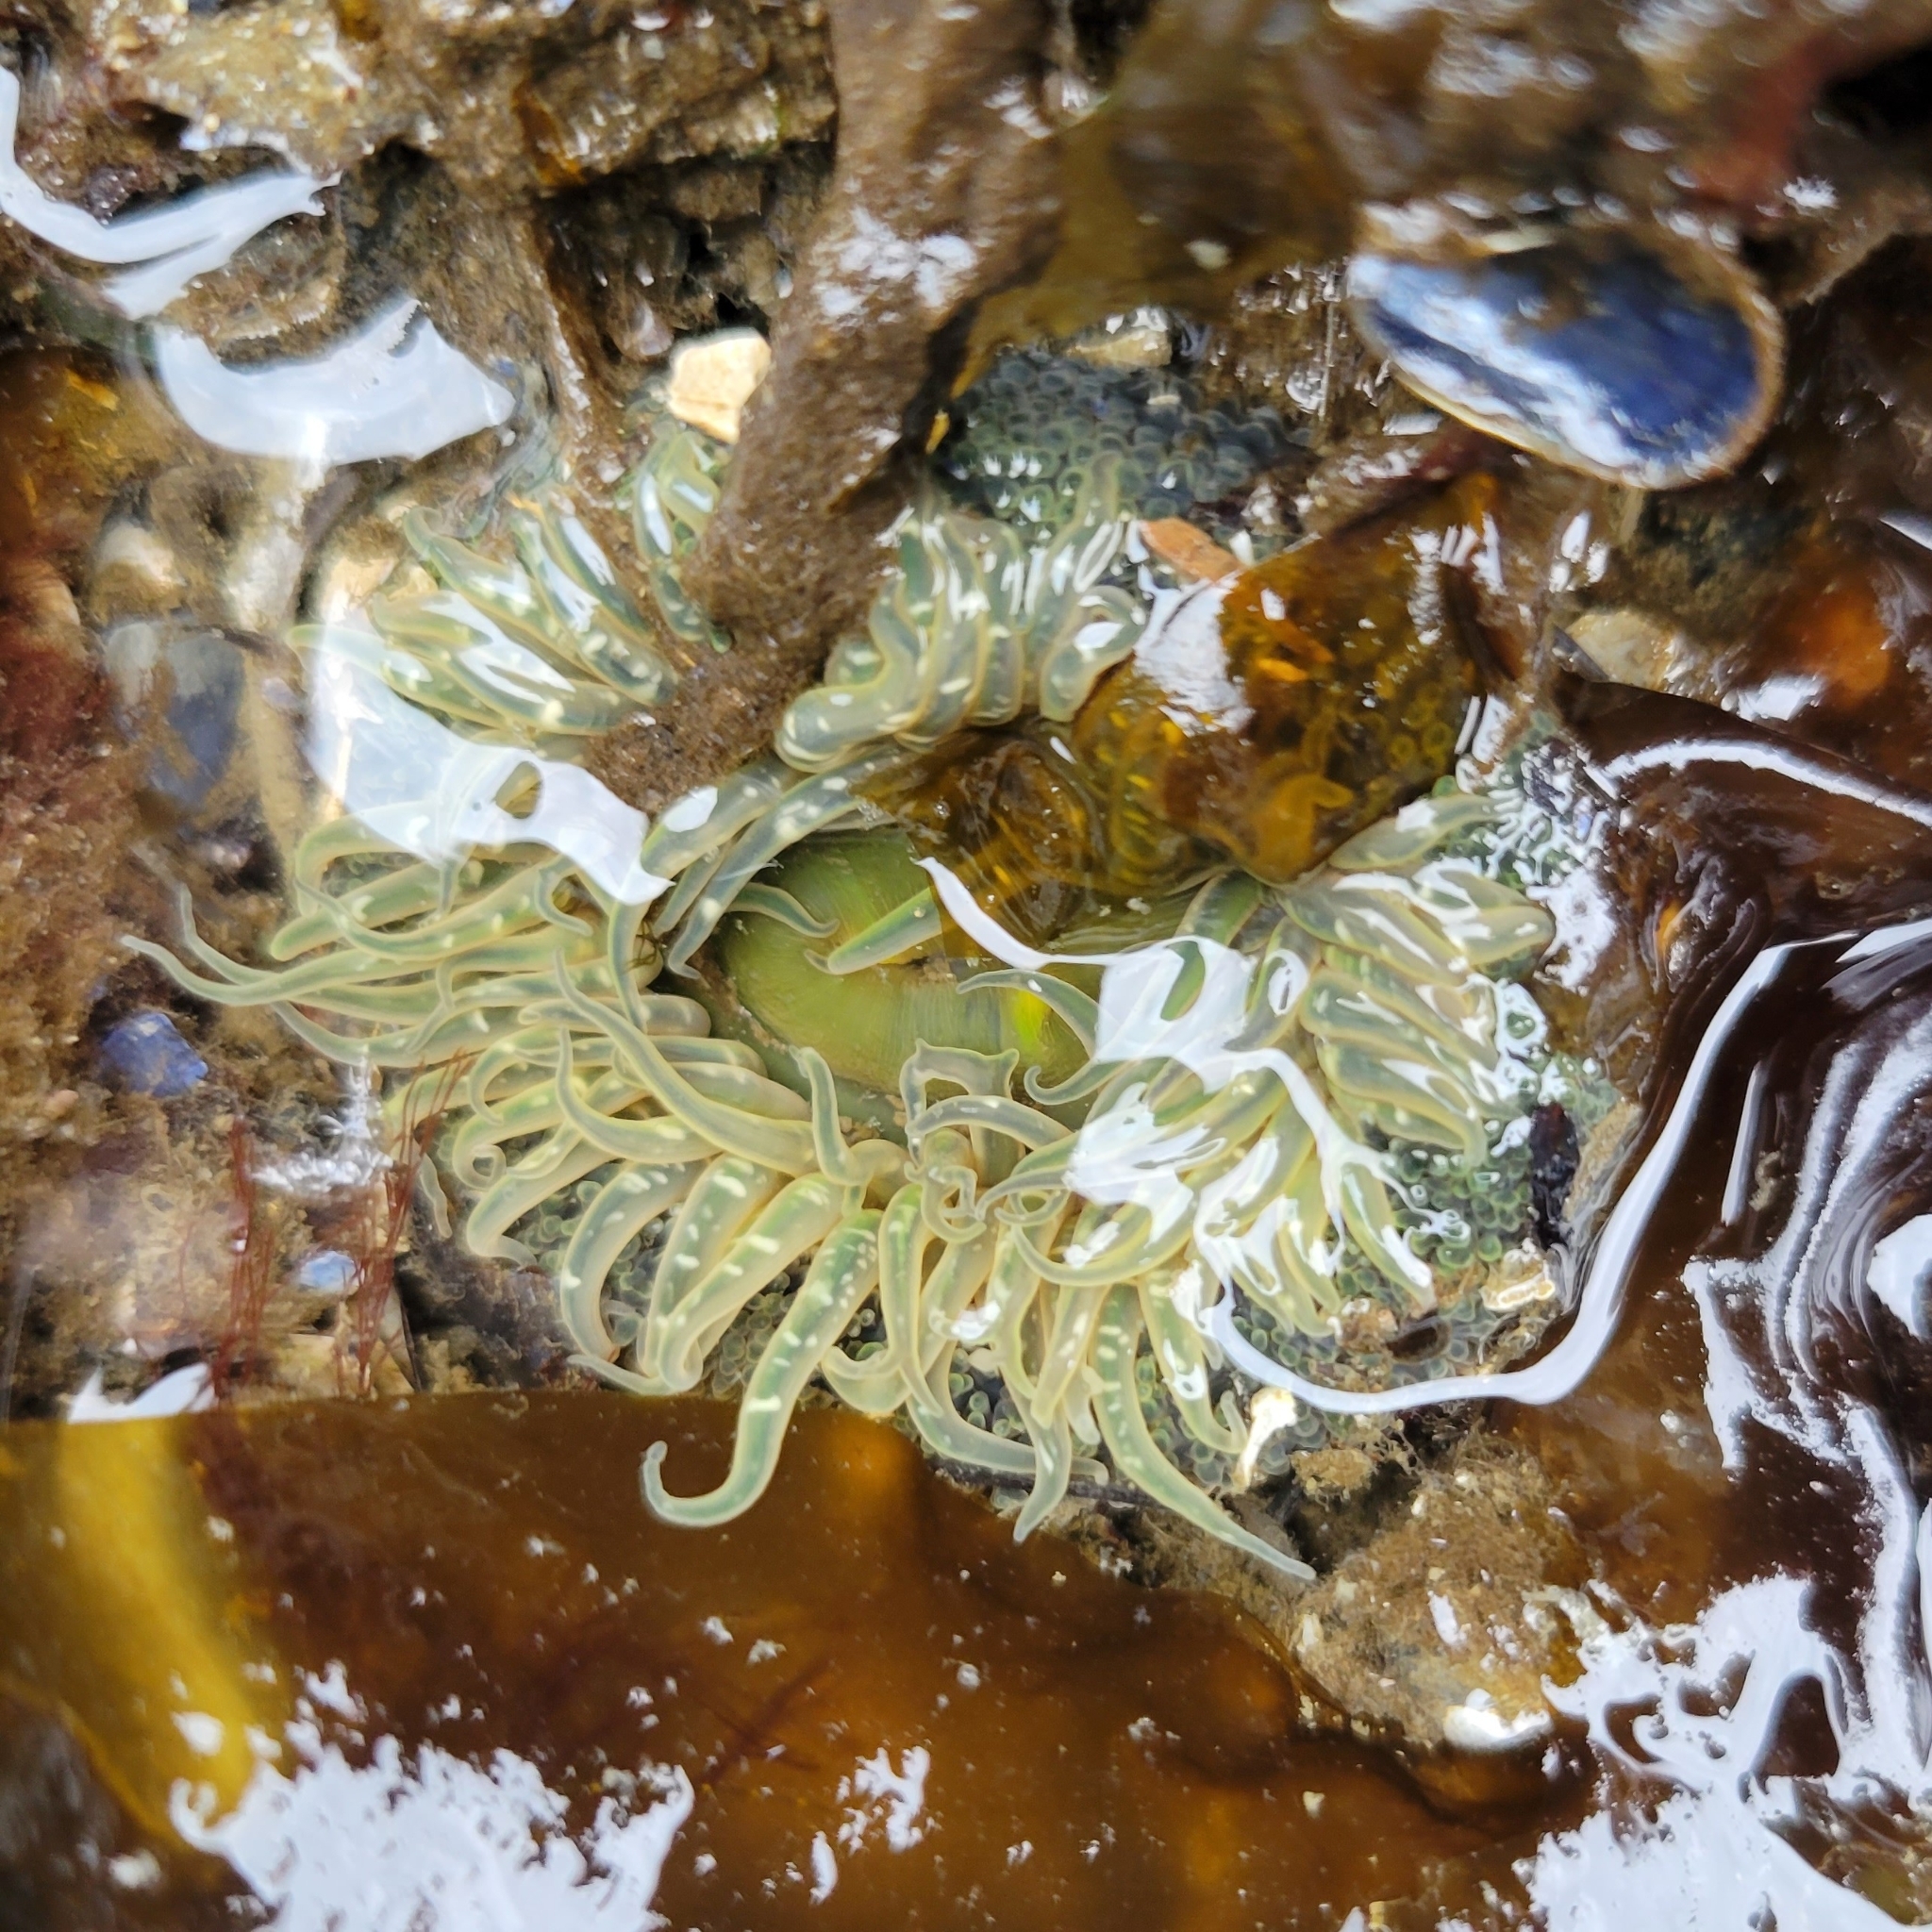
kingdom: Animalia
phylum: Cnidaria
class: Anthozoa
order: Actiniaria
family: Actiniidae
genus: Anthopleura
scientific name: Anthopleura artemisia
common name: Buried sea anemone
